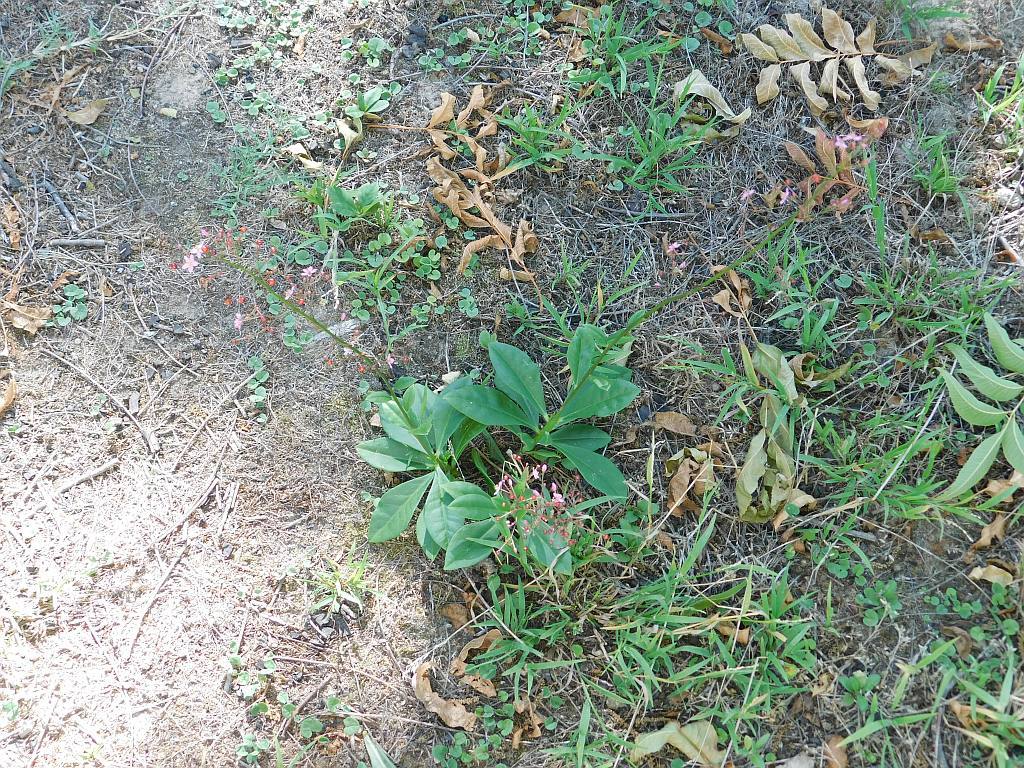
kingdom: Plantae
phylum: Tracheophyta
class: Magnoliopsida
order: Caryophyllales
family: Talinaceae
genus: Talinum
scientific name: Talinum paniculatum
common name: Jewels of opar
